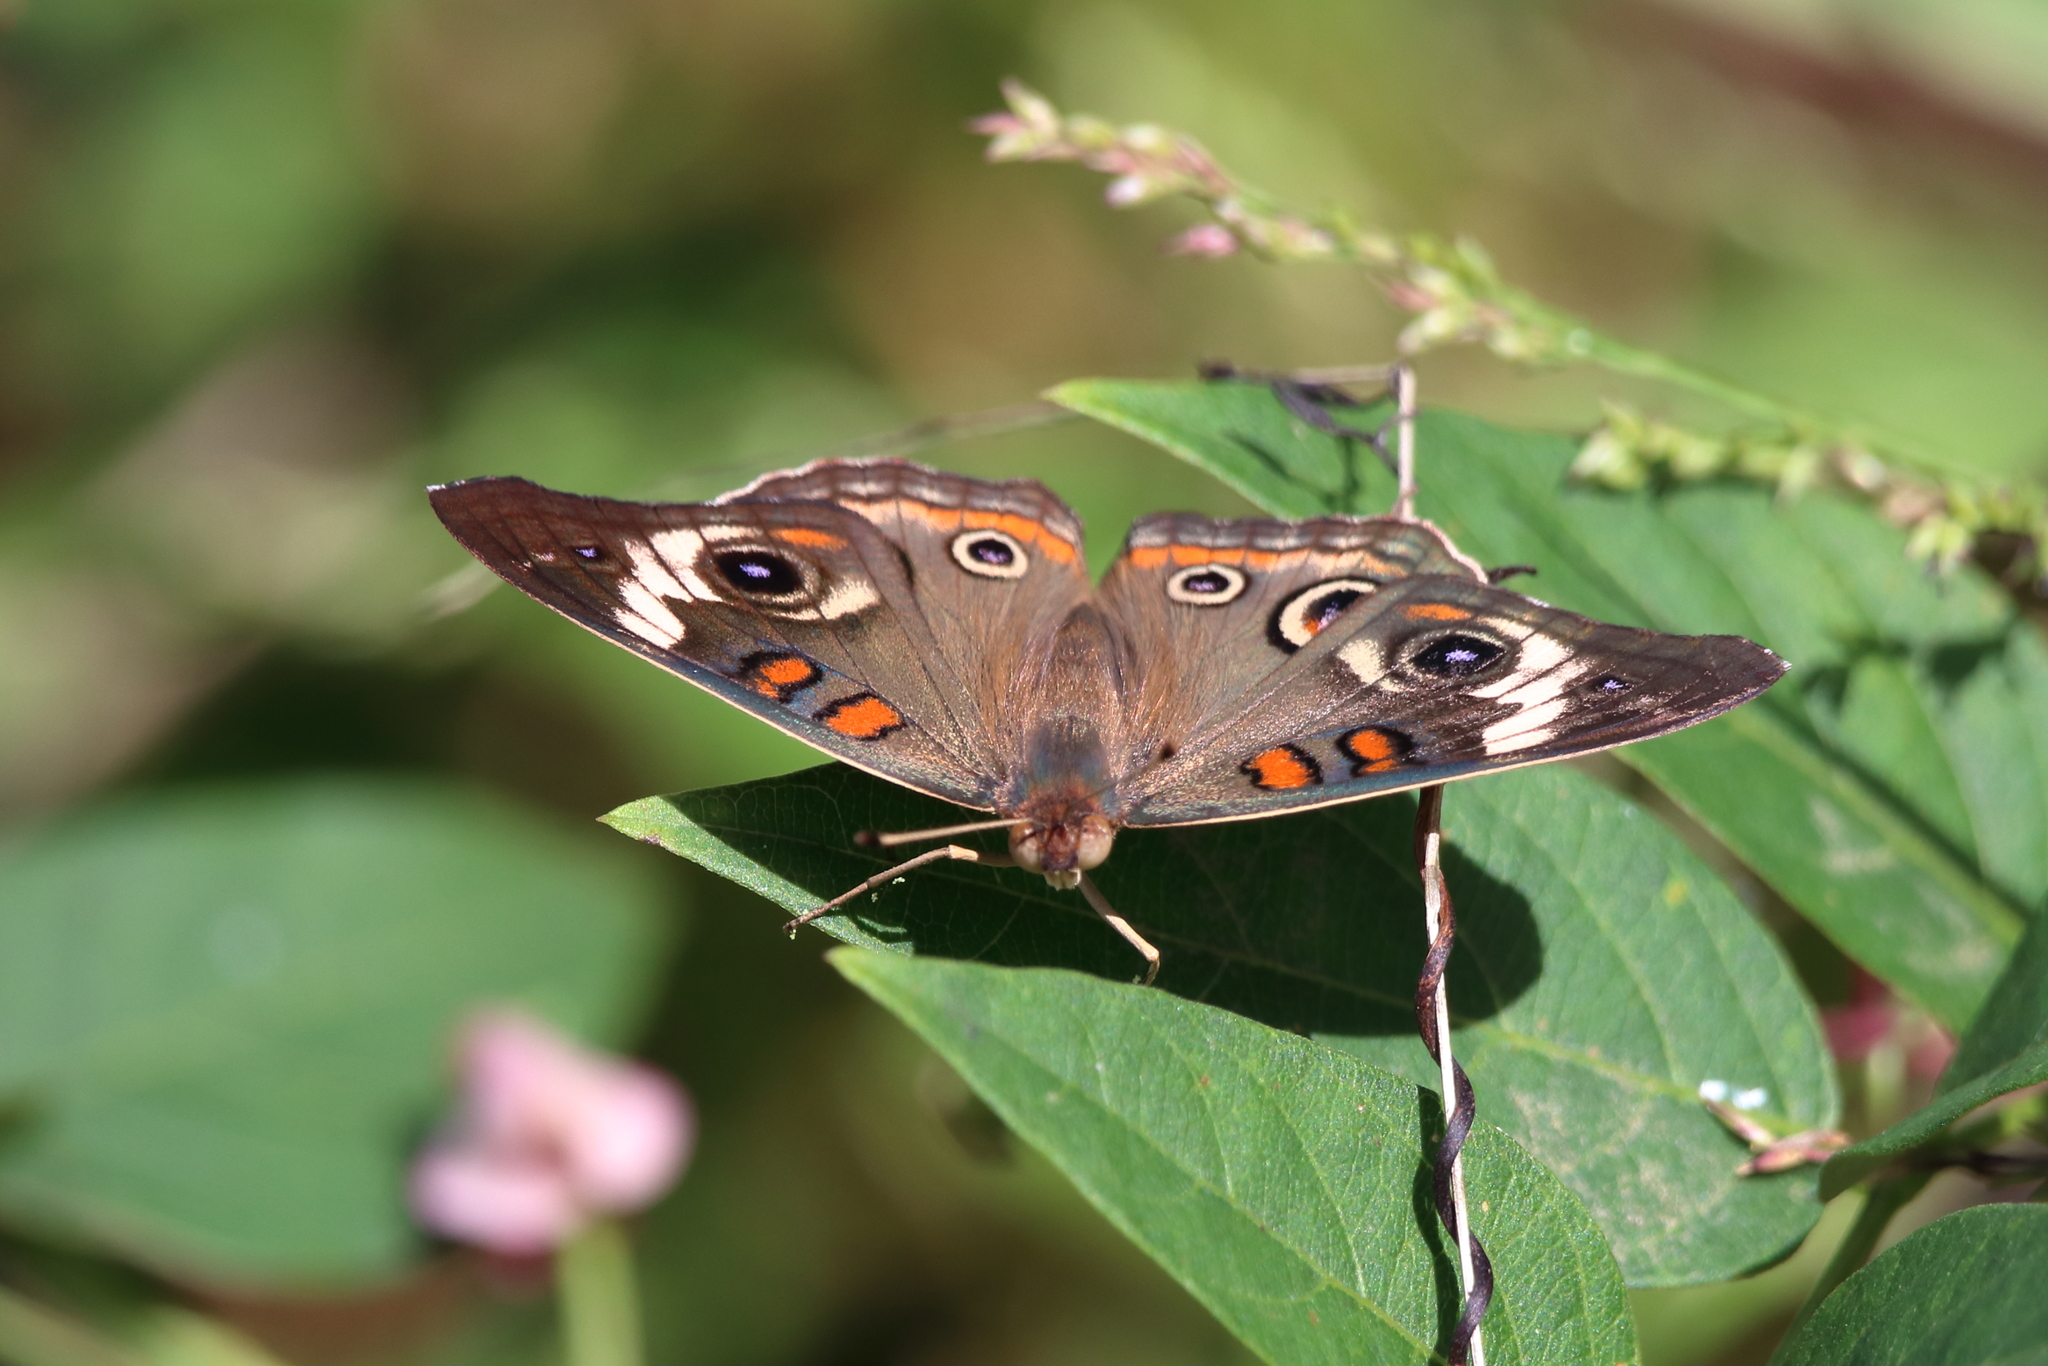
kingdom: Animalia
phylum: Arthropoda
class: Insecta
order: Lepidoptera
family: Nymphalidae
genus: Junonia
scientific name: Junonia coenia
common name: Common buckeye
